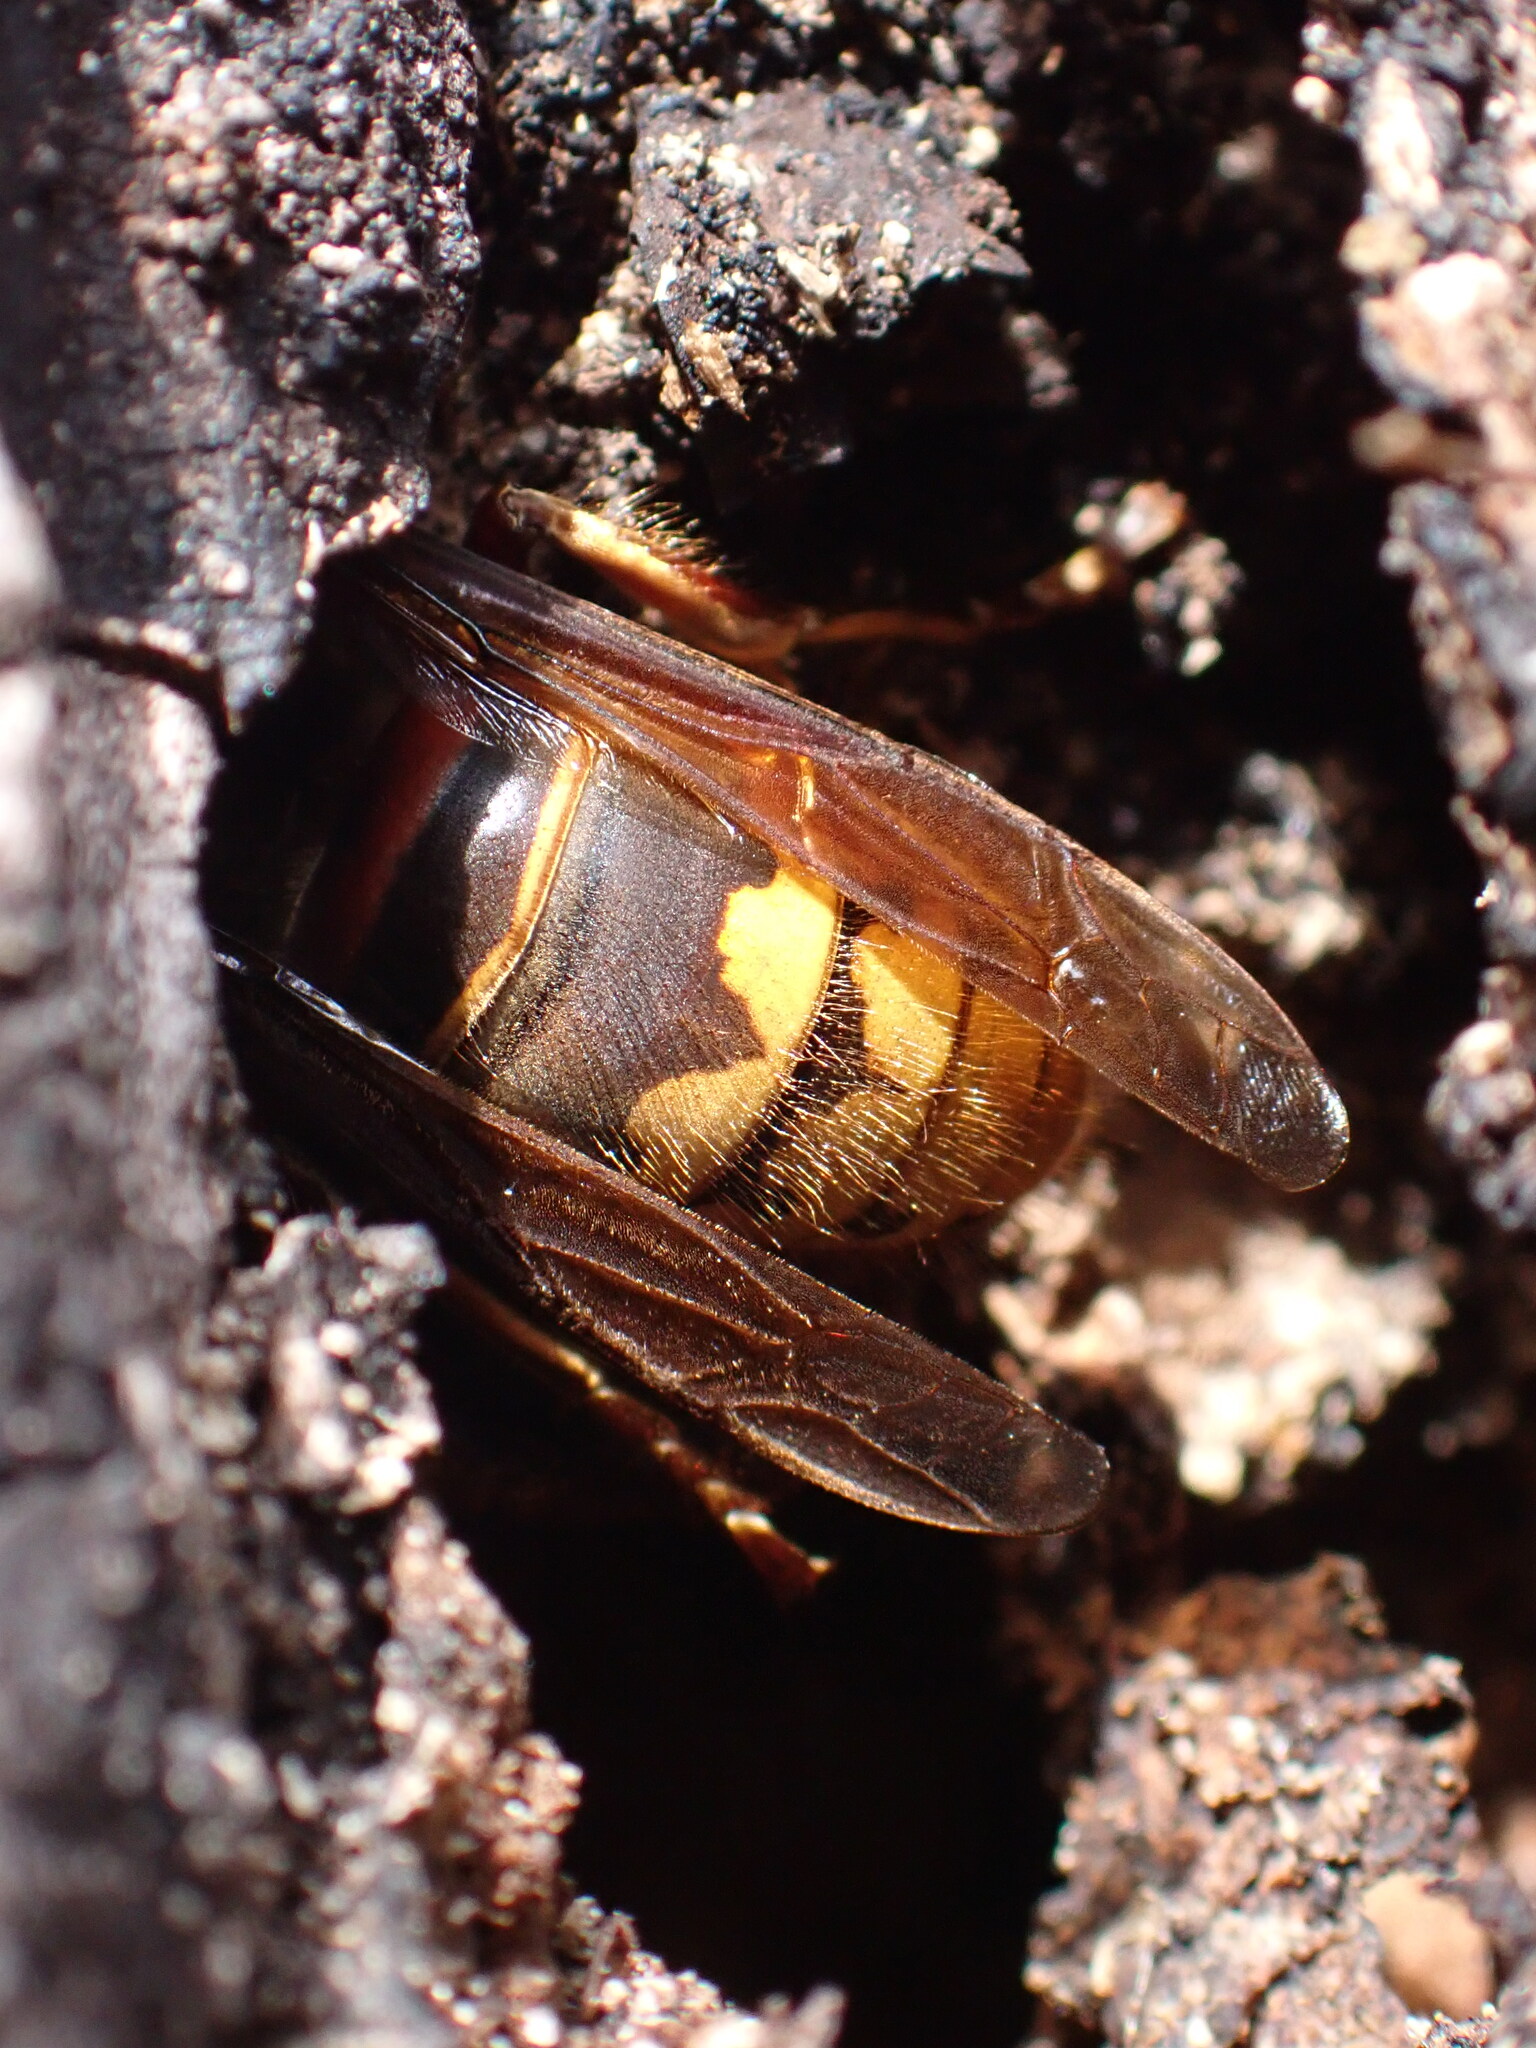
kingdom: Animalia
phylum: Arthropoda
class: Insecta
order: Hymenoptera
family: Vespidae
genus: Vespa
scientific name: Vespa crabro
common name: Hornet
